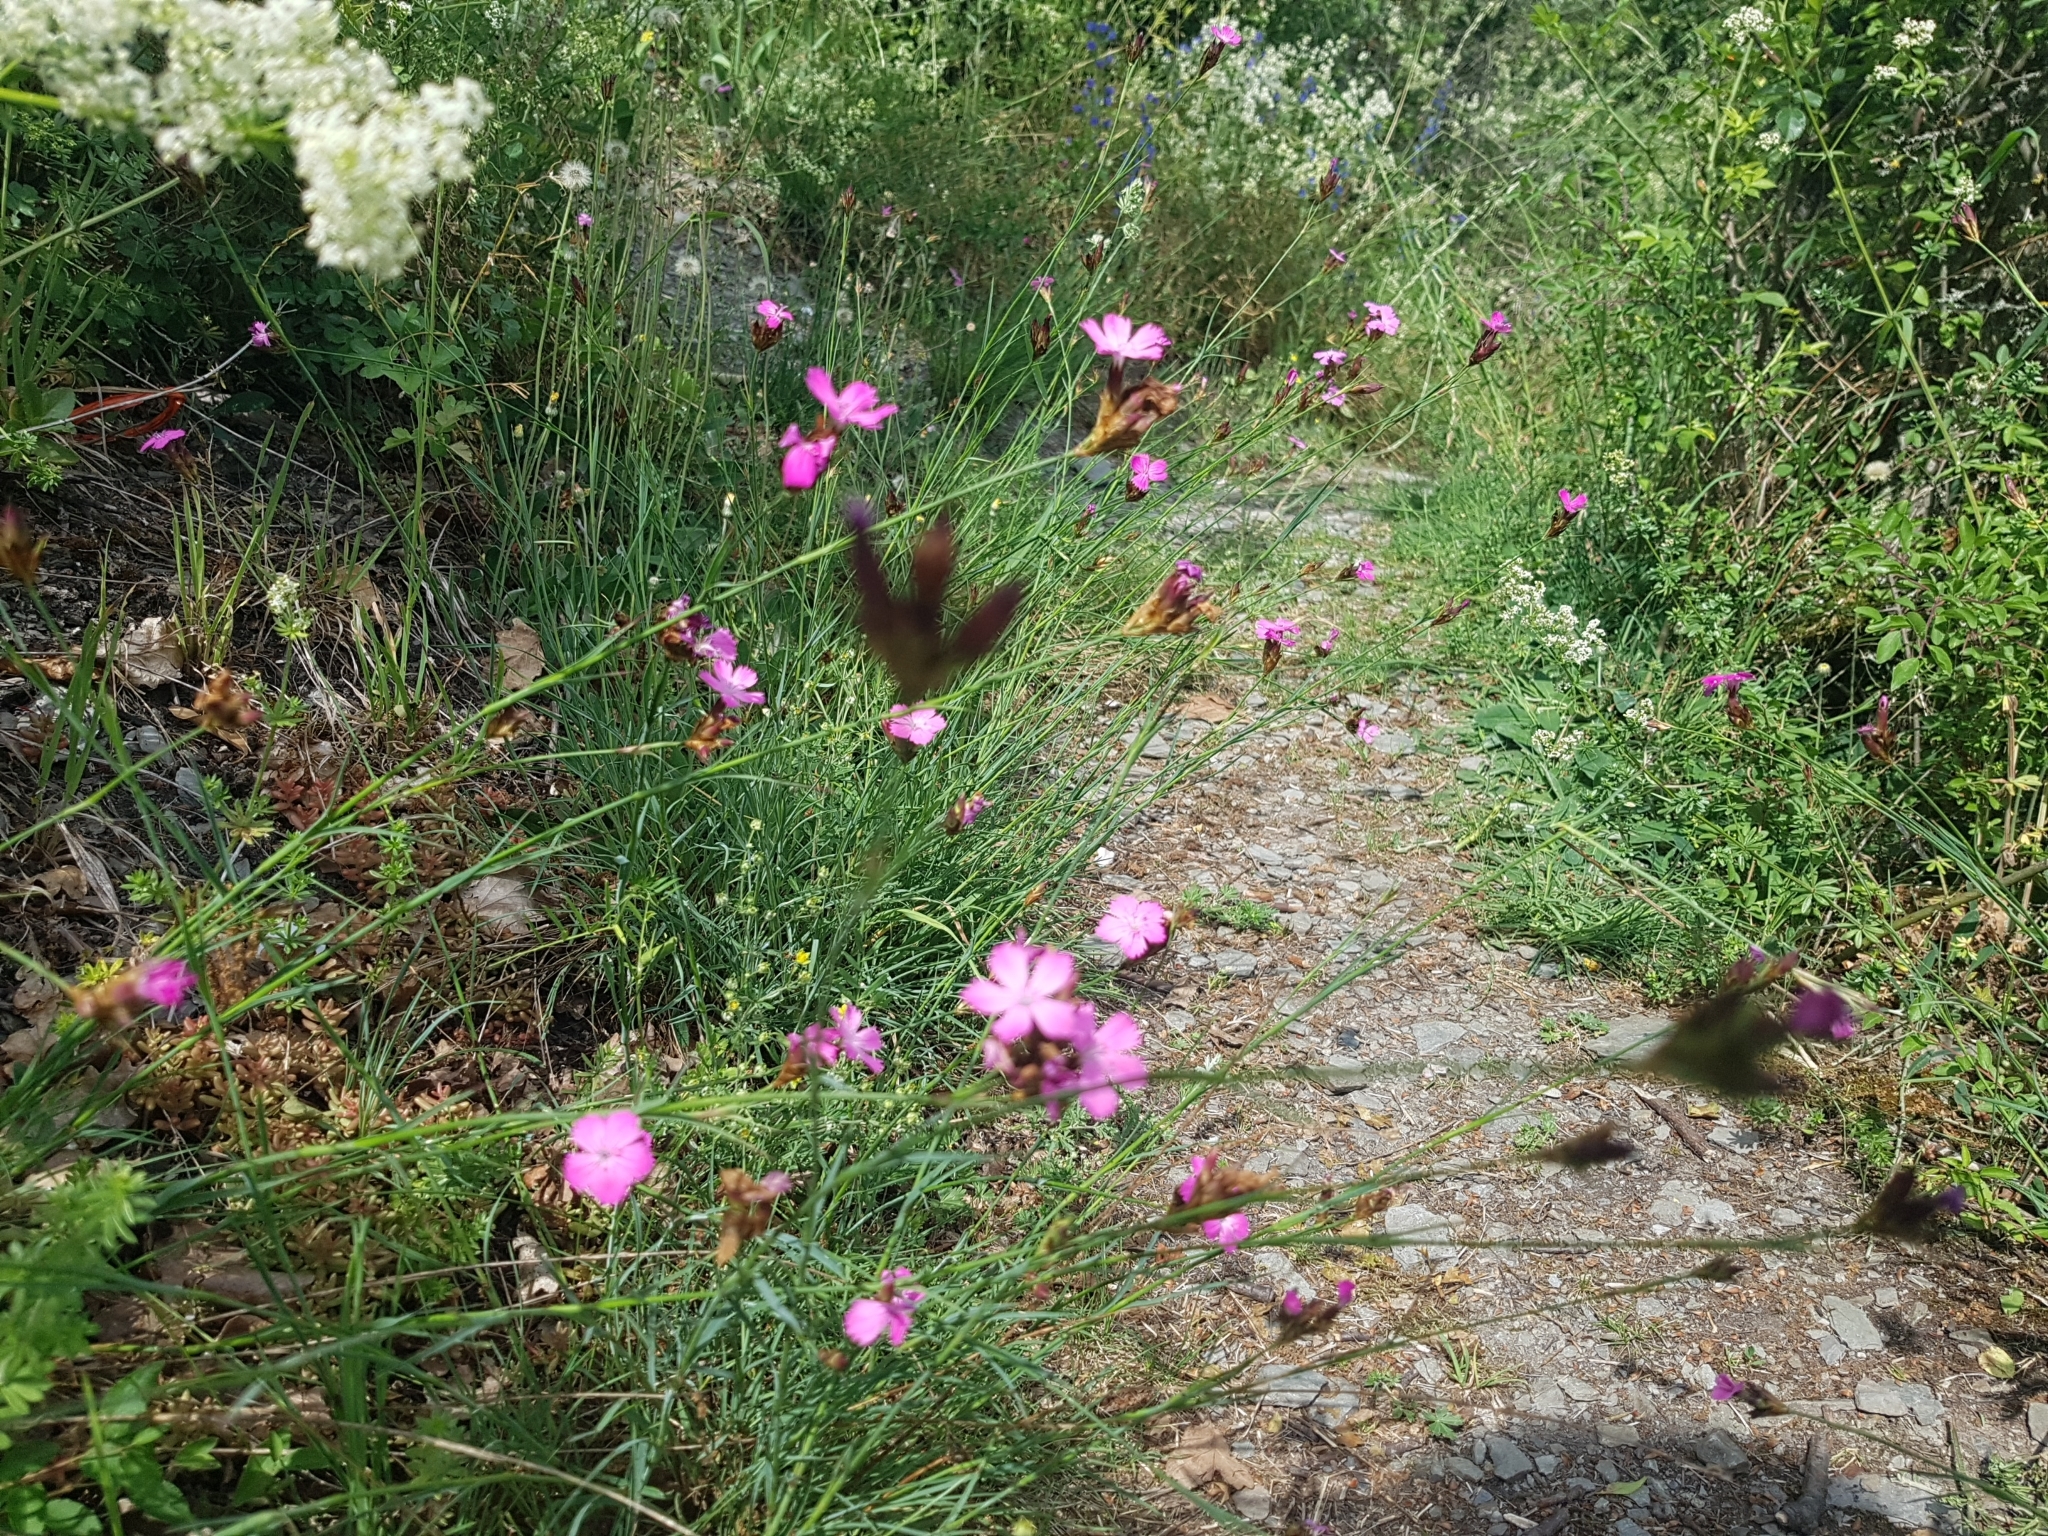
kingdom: Plantae
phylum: Tracheophyta
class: Magnoliopsida
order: Caryophyllales
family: Caryophyllaceae
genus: Dianthus
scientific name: Dianthus carthusianorum
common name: Carthusian pink
